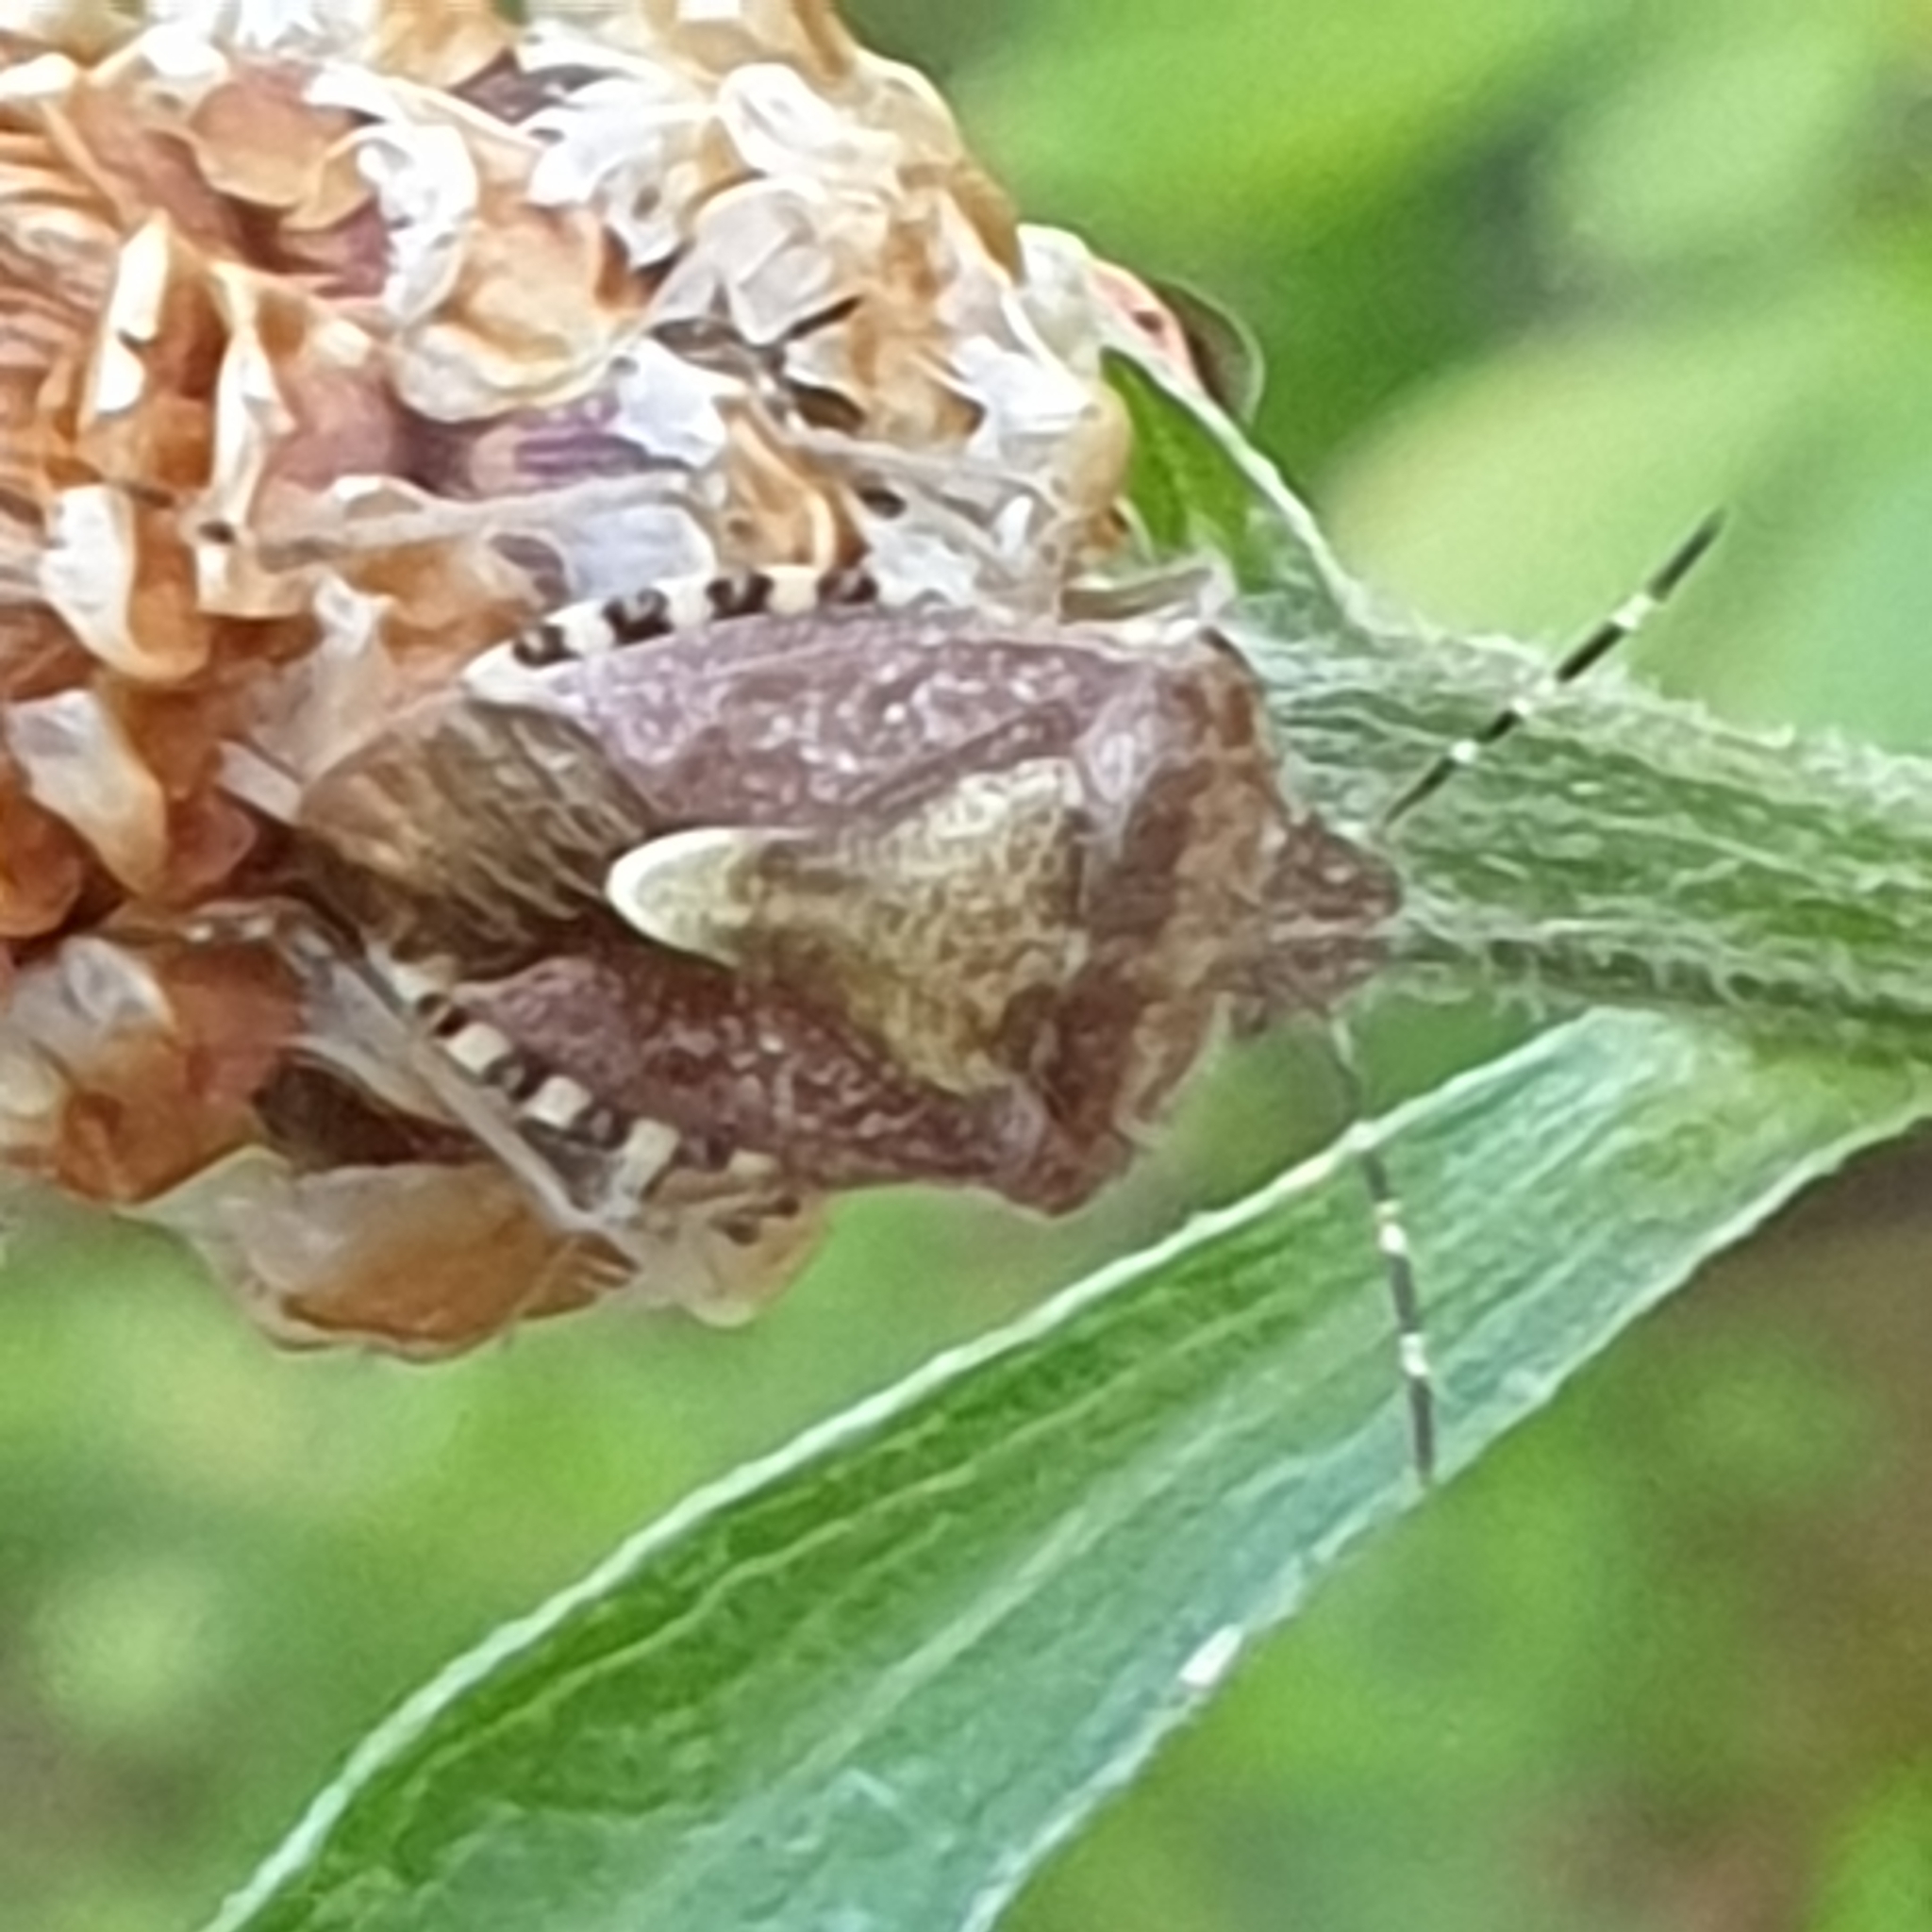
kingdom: Animalia
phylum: Arthropoda
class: Insecta
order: Hemiptera
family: Pentatomidae
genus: Dolycoris
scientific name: Dolycoris baccarum
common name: Sloe bug
